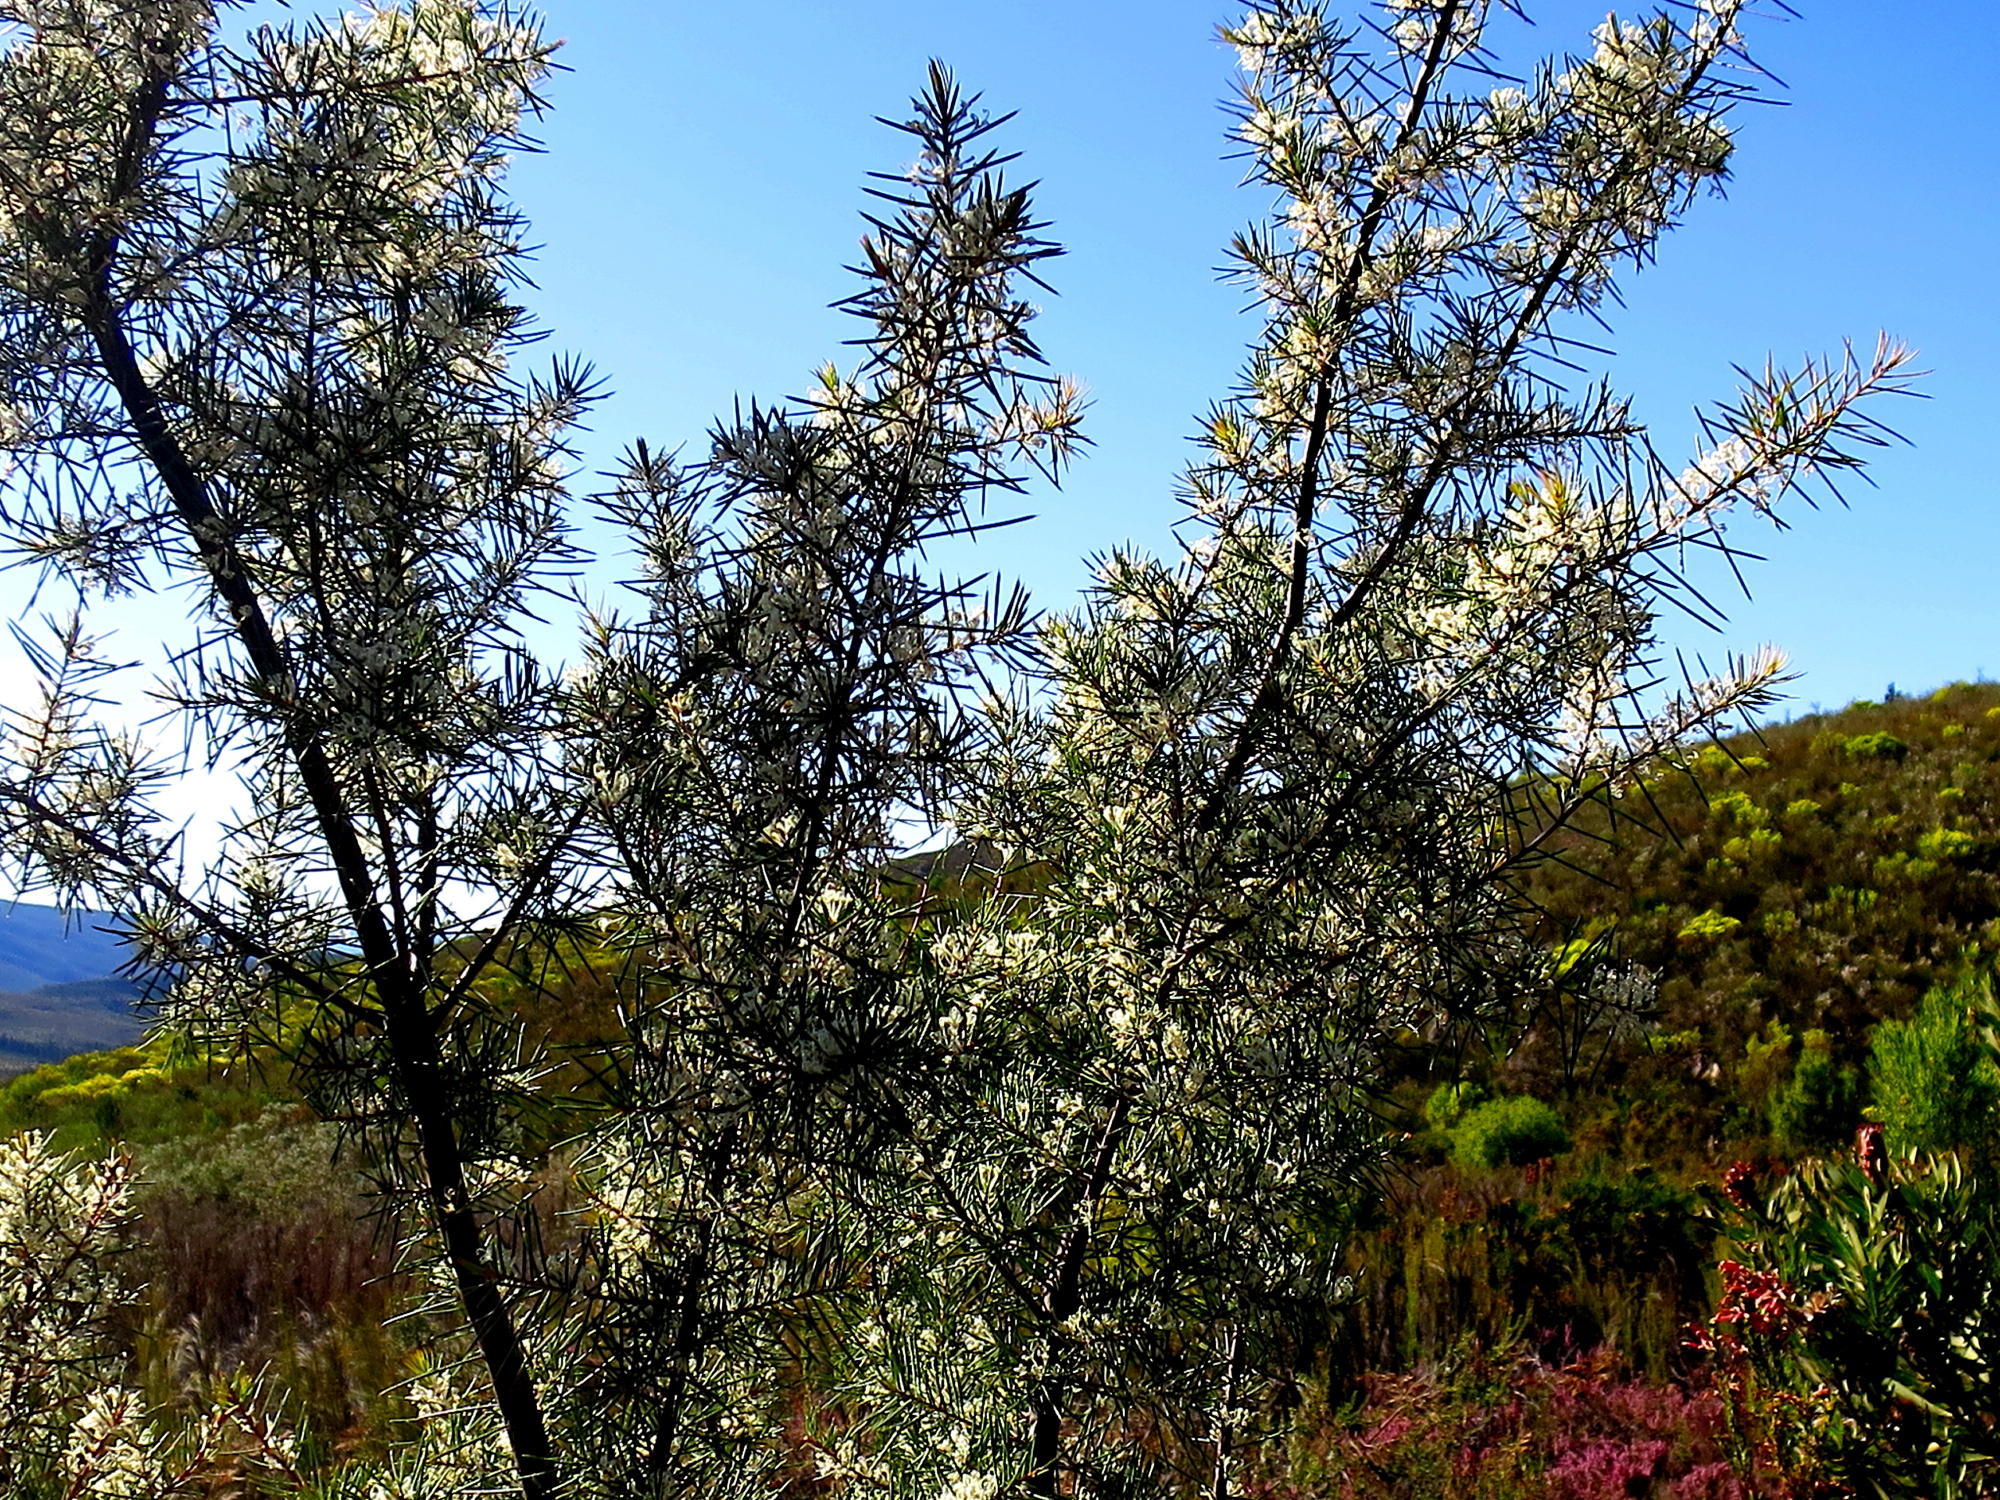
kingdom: Plantae
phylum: Tracheophyta
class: Magnoliopsida
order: Proteales
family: Proteaceae
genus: Hakea
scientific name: Hakea sericea
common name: Needle bush
